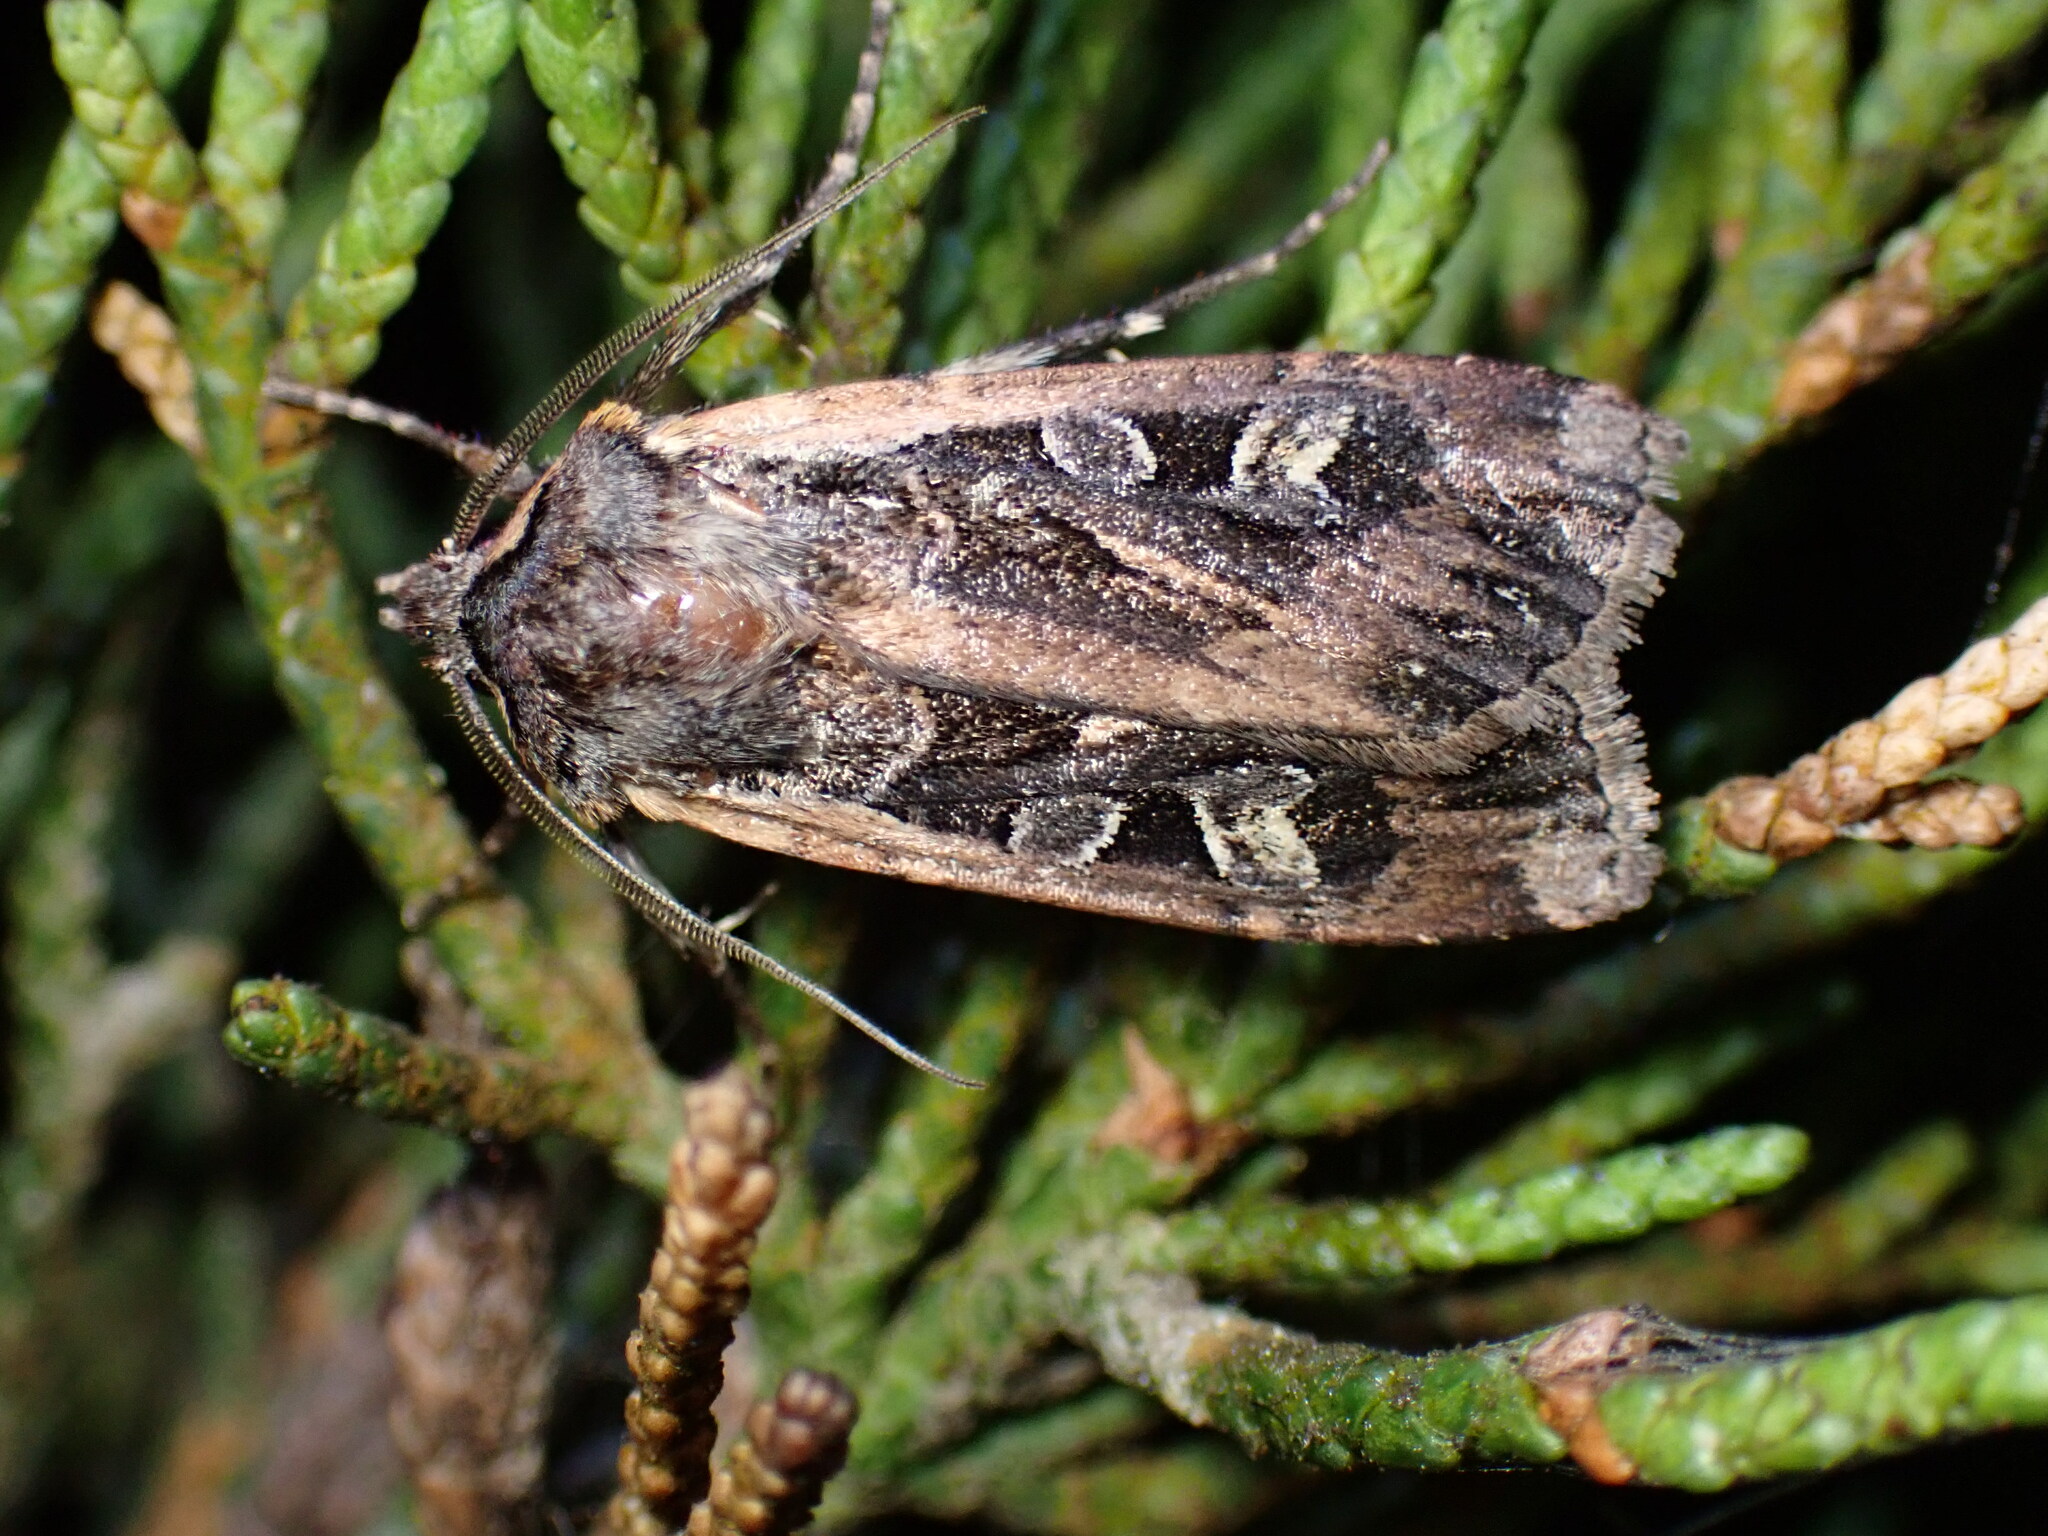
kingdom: Animalia
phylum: Arthropoda
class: Insecta
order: Lepidoptera
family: Noctuidae
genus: Euxoa
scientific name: Euxoa auxiliaris
